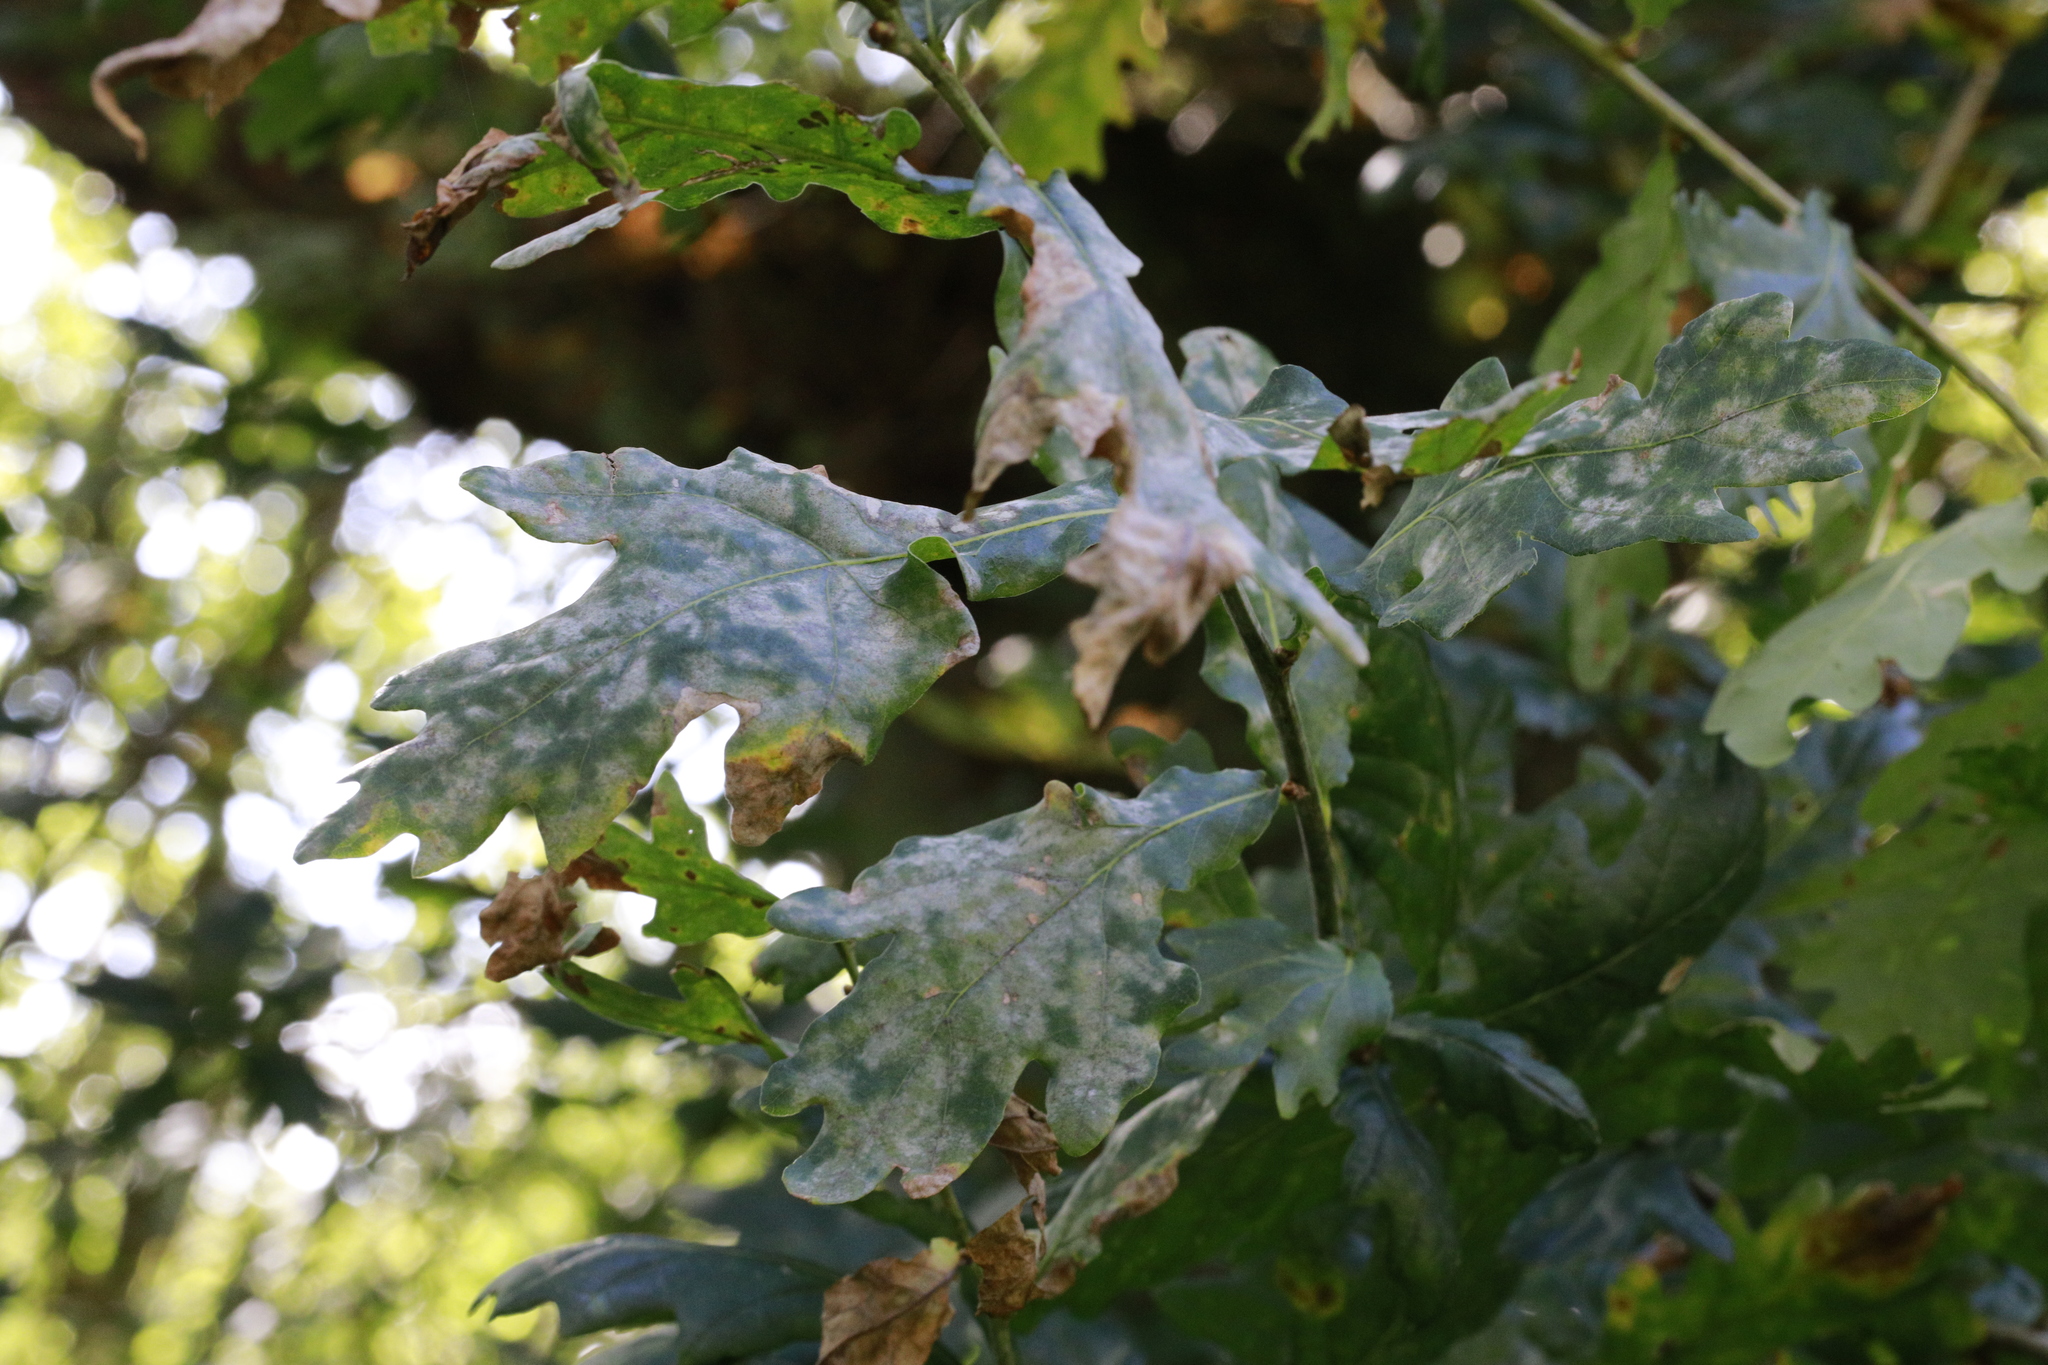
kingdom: Fungi
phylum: Ascomycota
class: Leotiomycetes
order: Helotiales
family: Erysiphaceae
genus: Erysiphe
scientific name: Erysiphe alphitoides
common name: Oak mildew
